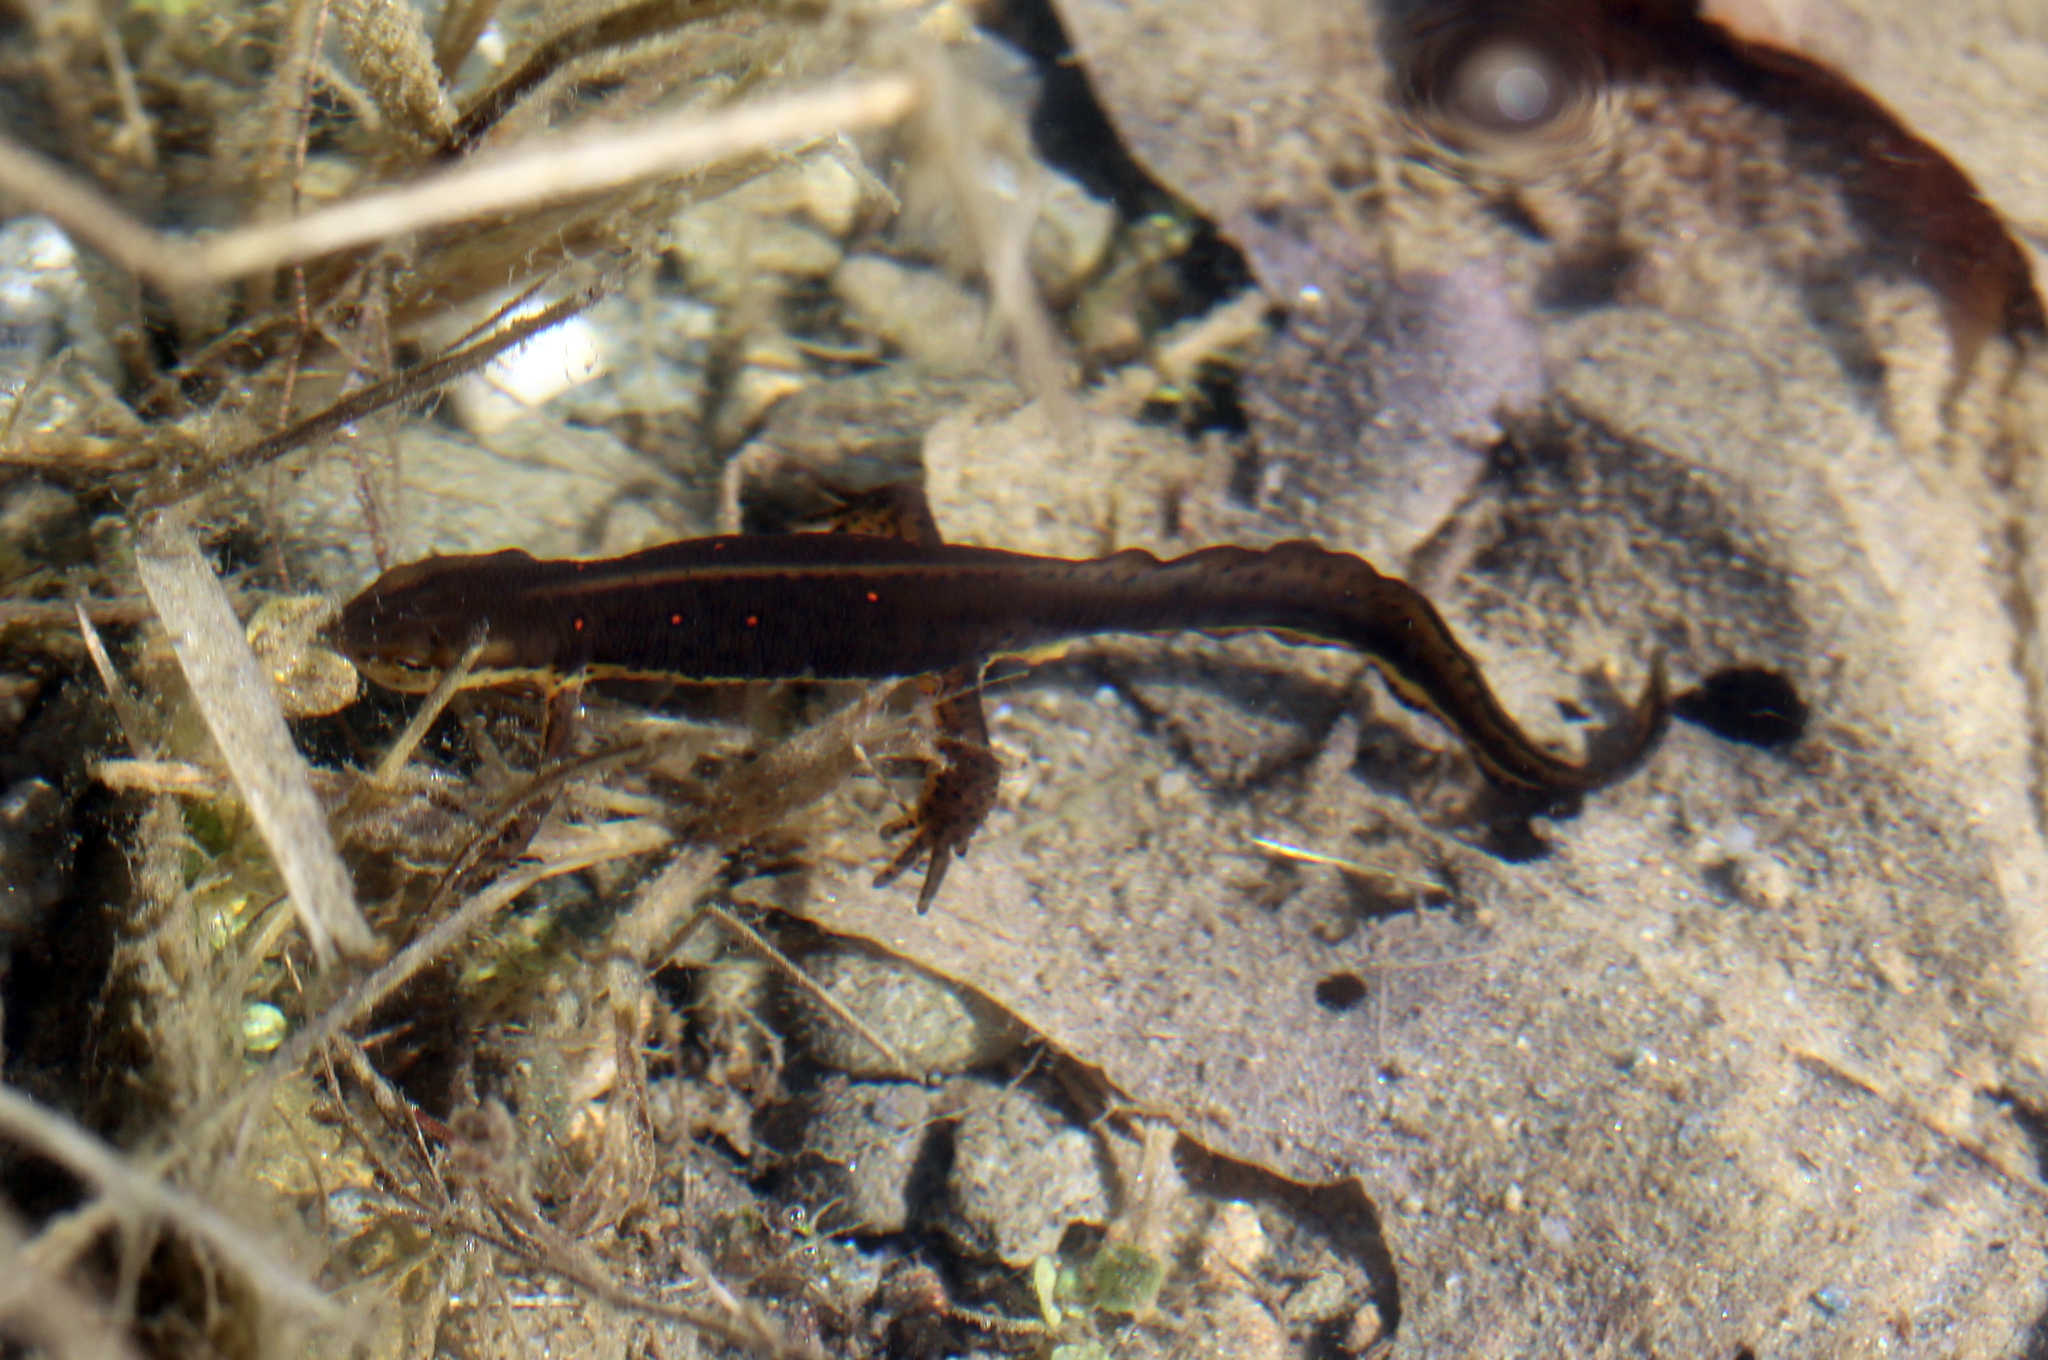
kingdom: Animalia
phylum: Chordata
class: Amphibia
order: Caudata
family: Salamandridae
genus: Notophthalmus
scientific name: Notophthalmus viridescens
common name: Eastern newt
